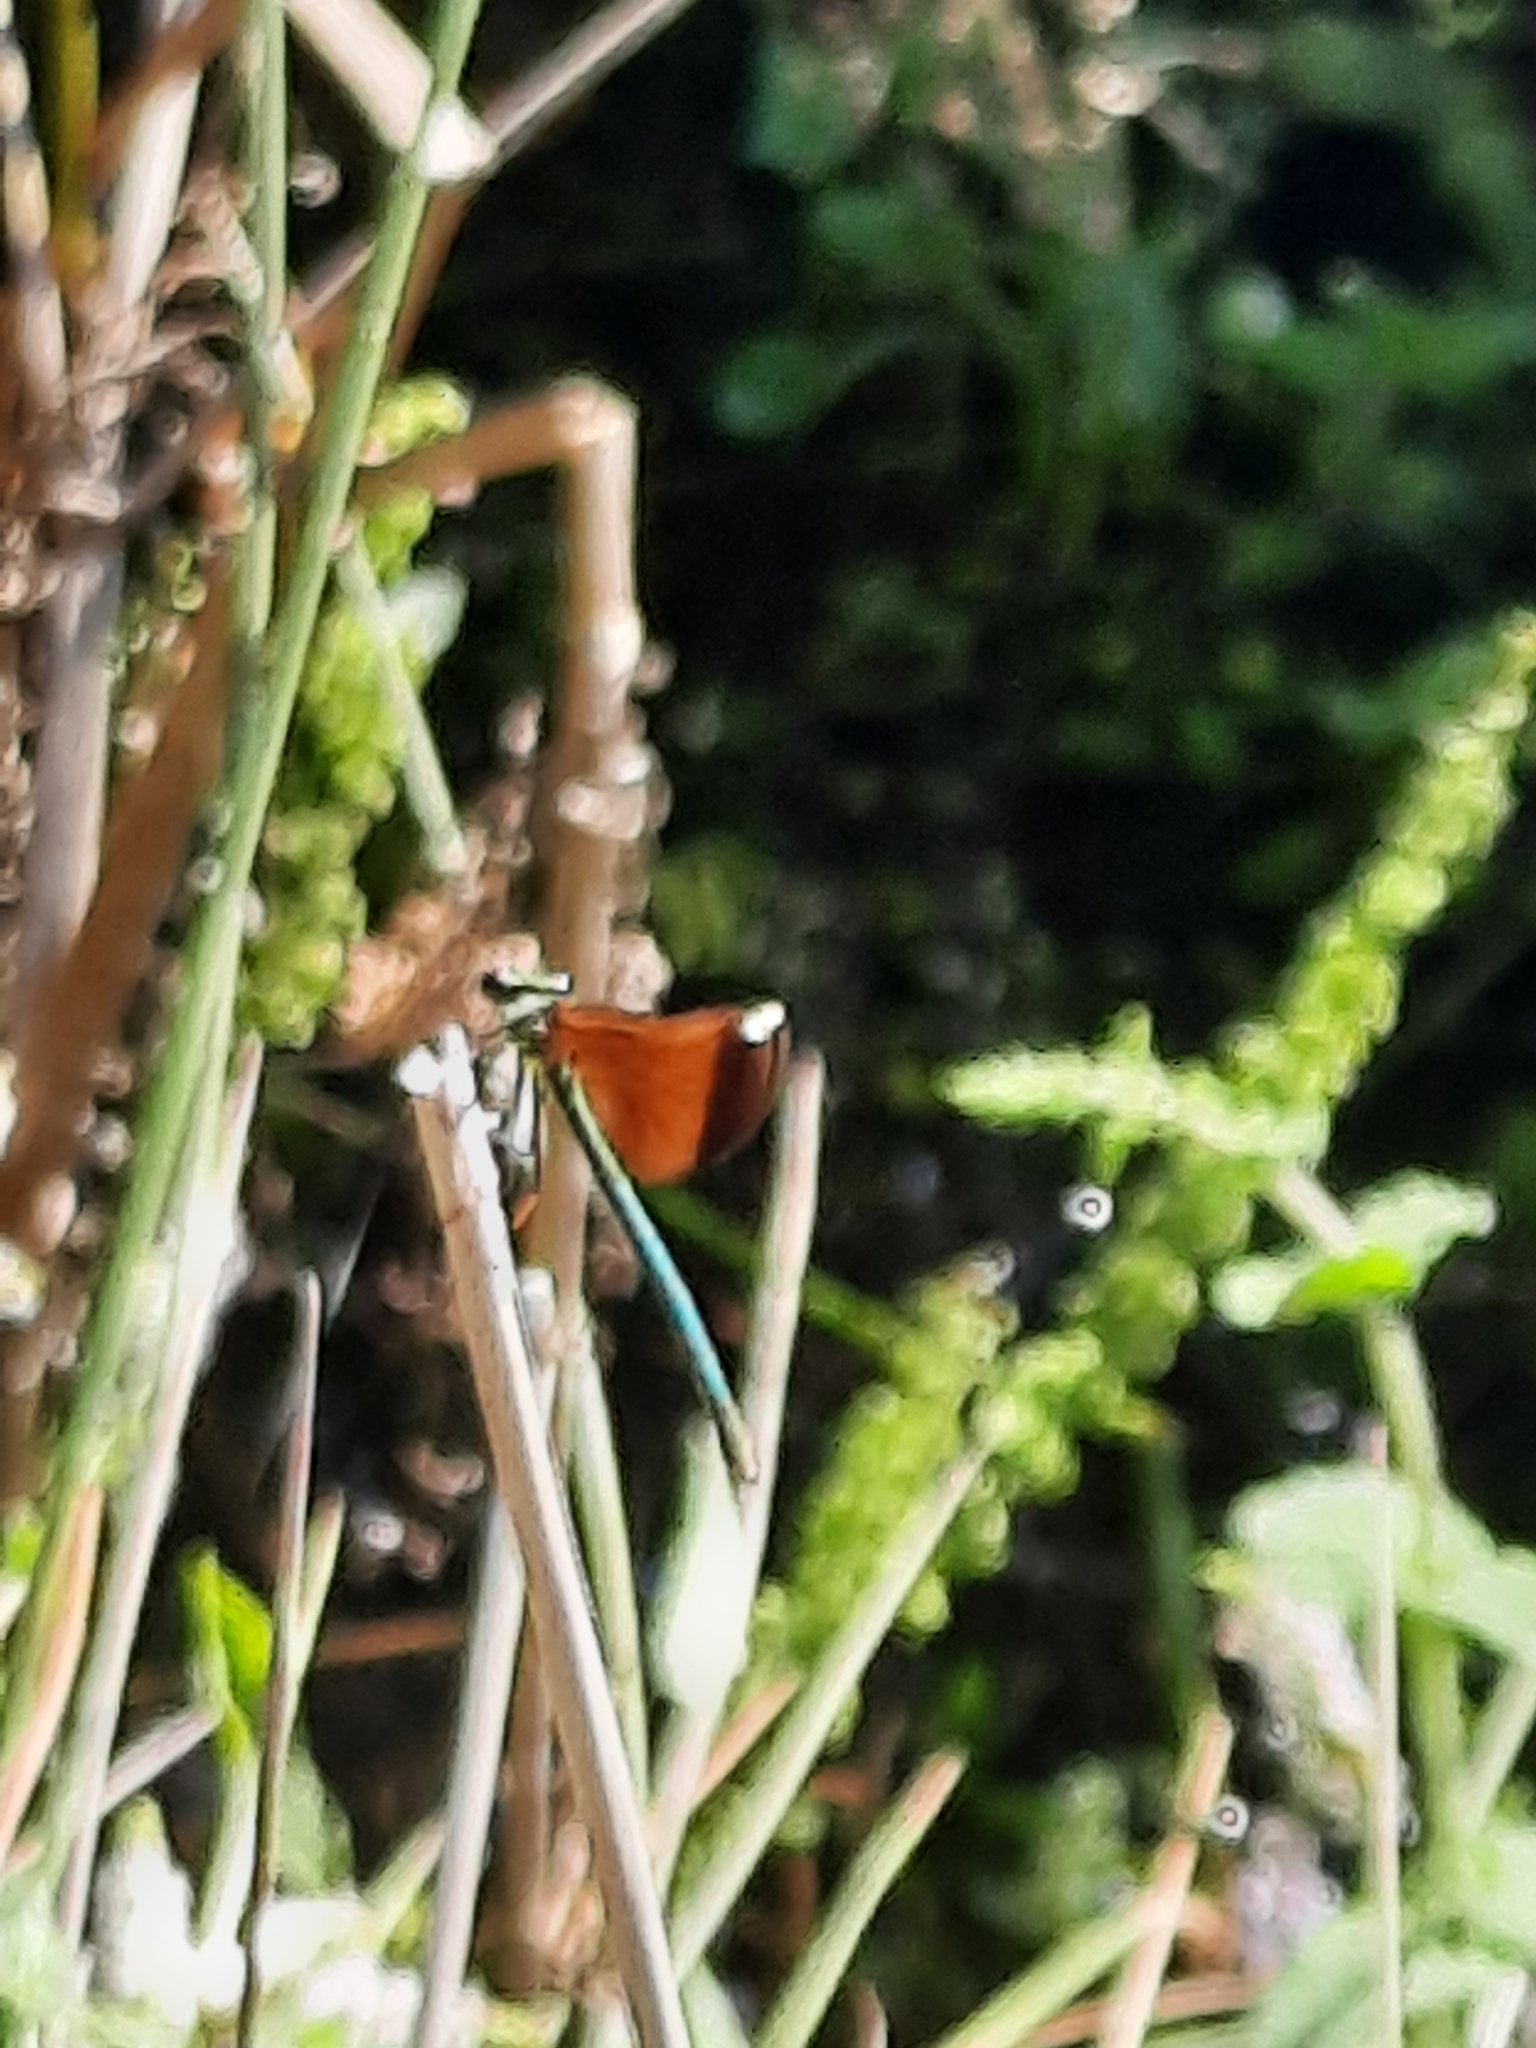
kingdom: Animalia
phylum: Arthropoda
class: Insecta
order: Odonata
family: Calopterygidae
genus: Calopteryx
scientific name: Calopteryx haemorrhoidalis
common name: Copper demoiselle
